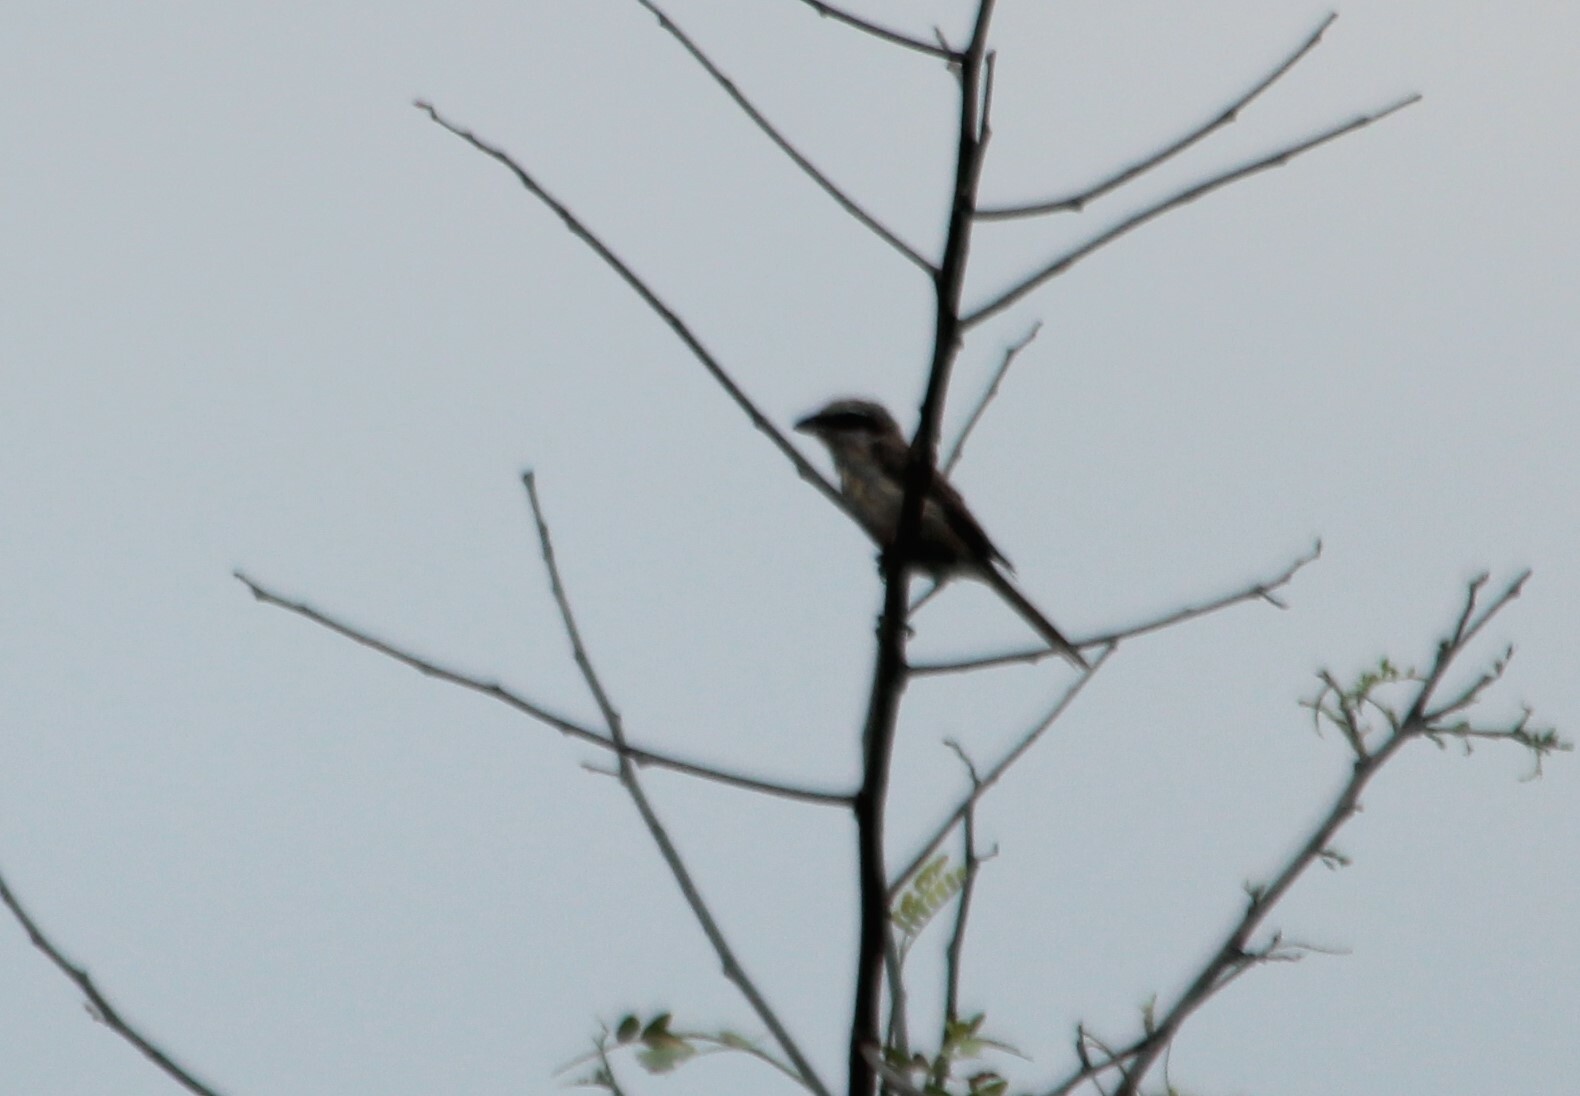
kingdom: Animalia
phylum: Chordata
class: Aves
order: Passeriformes
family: Laniidae
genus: Lanius
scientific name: Lanius vittatus
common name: Bay-backed shrike
